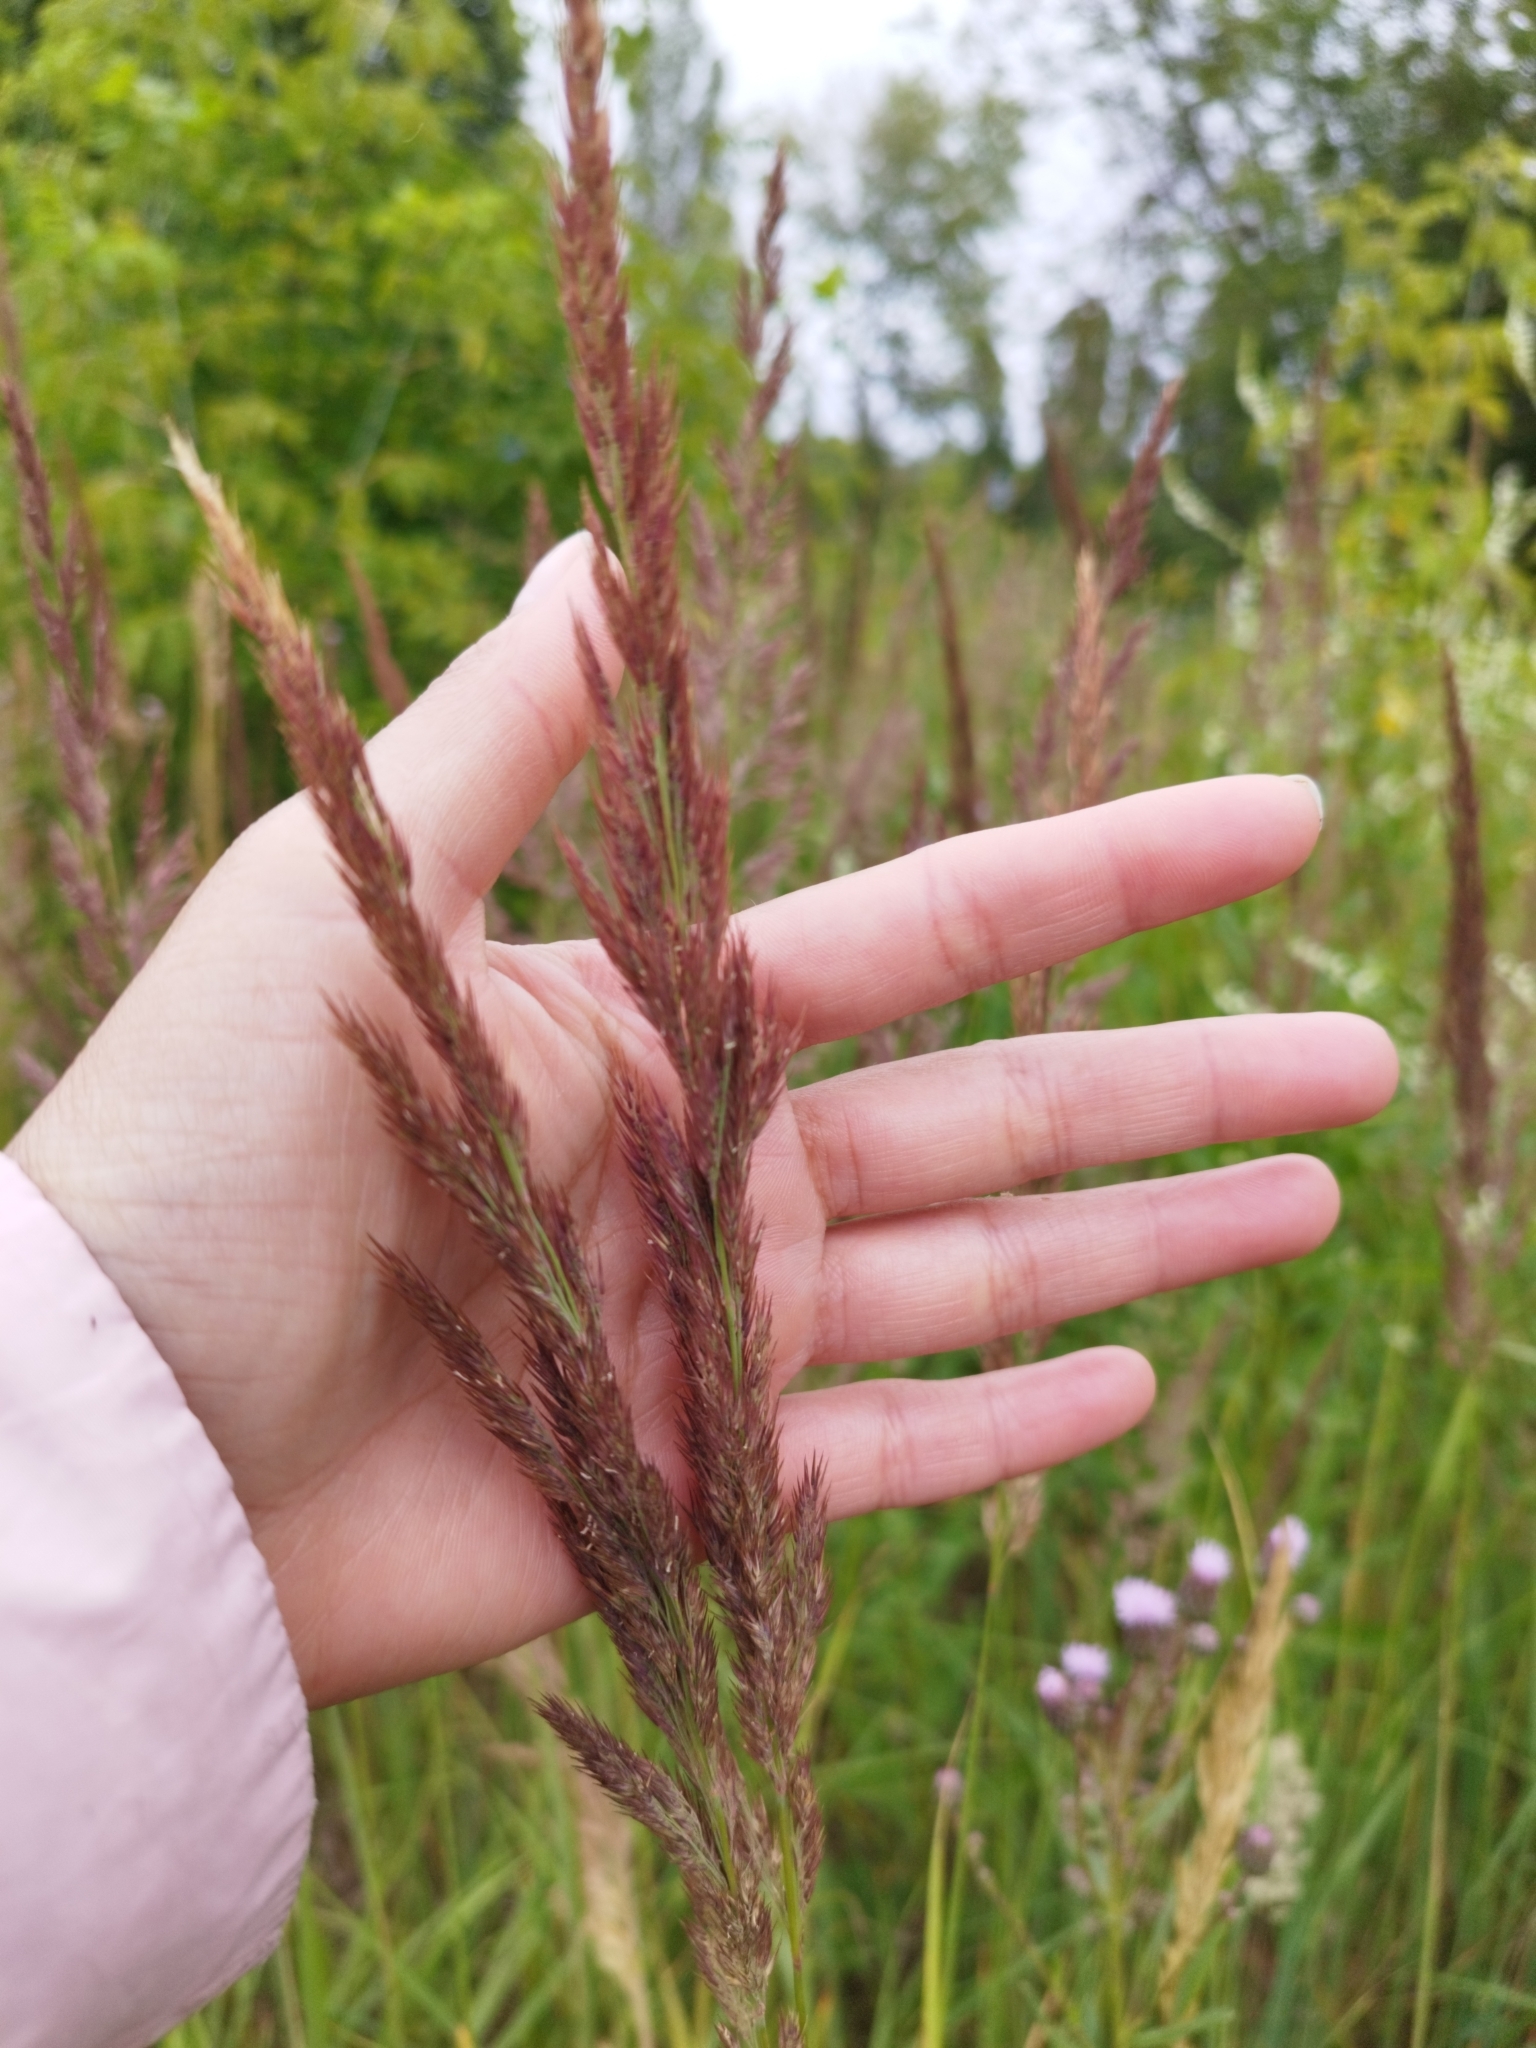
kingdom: Plantae
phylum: Tracheophyta
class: Liliopsida
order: Poales
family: Poaceae
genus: Calamagrostis
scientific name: Calamagrostis epigejos
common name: Wood small-reed
